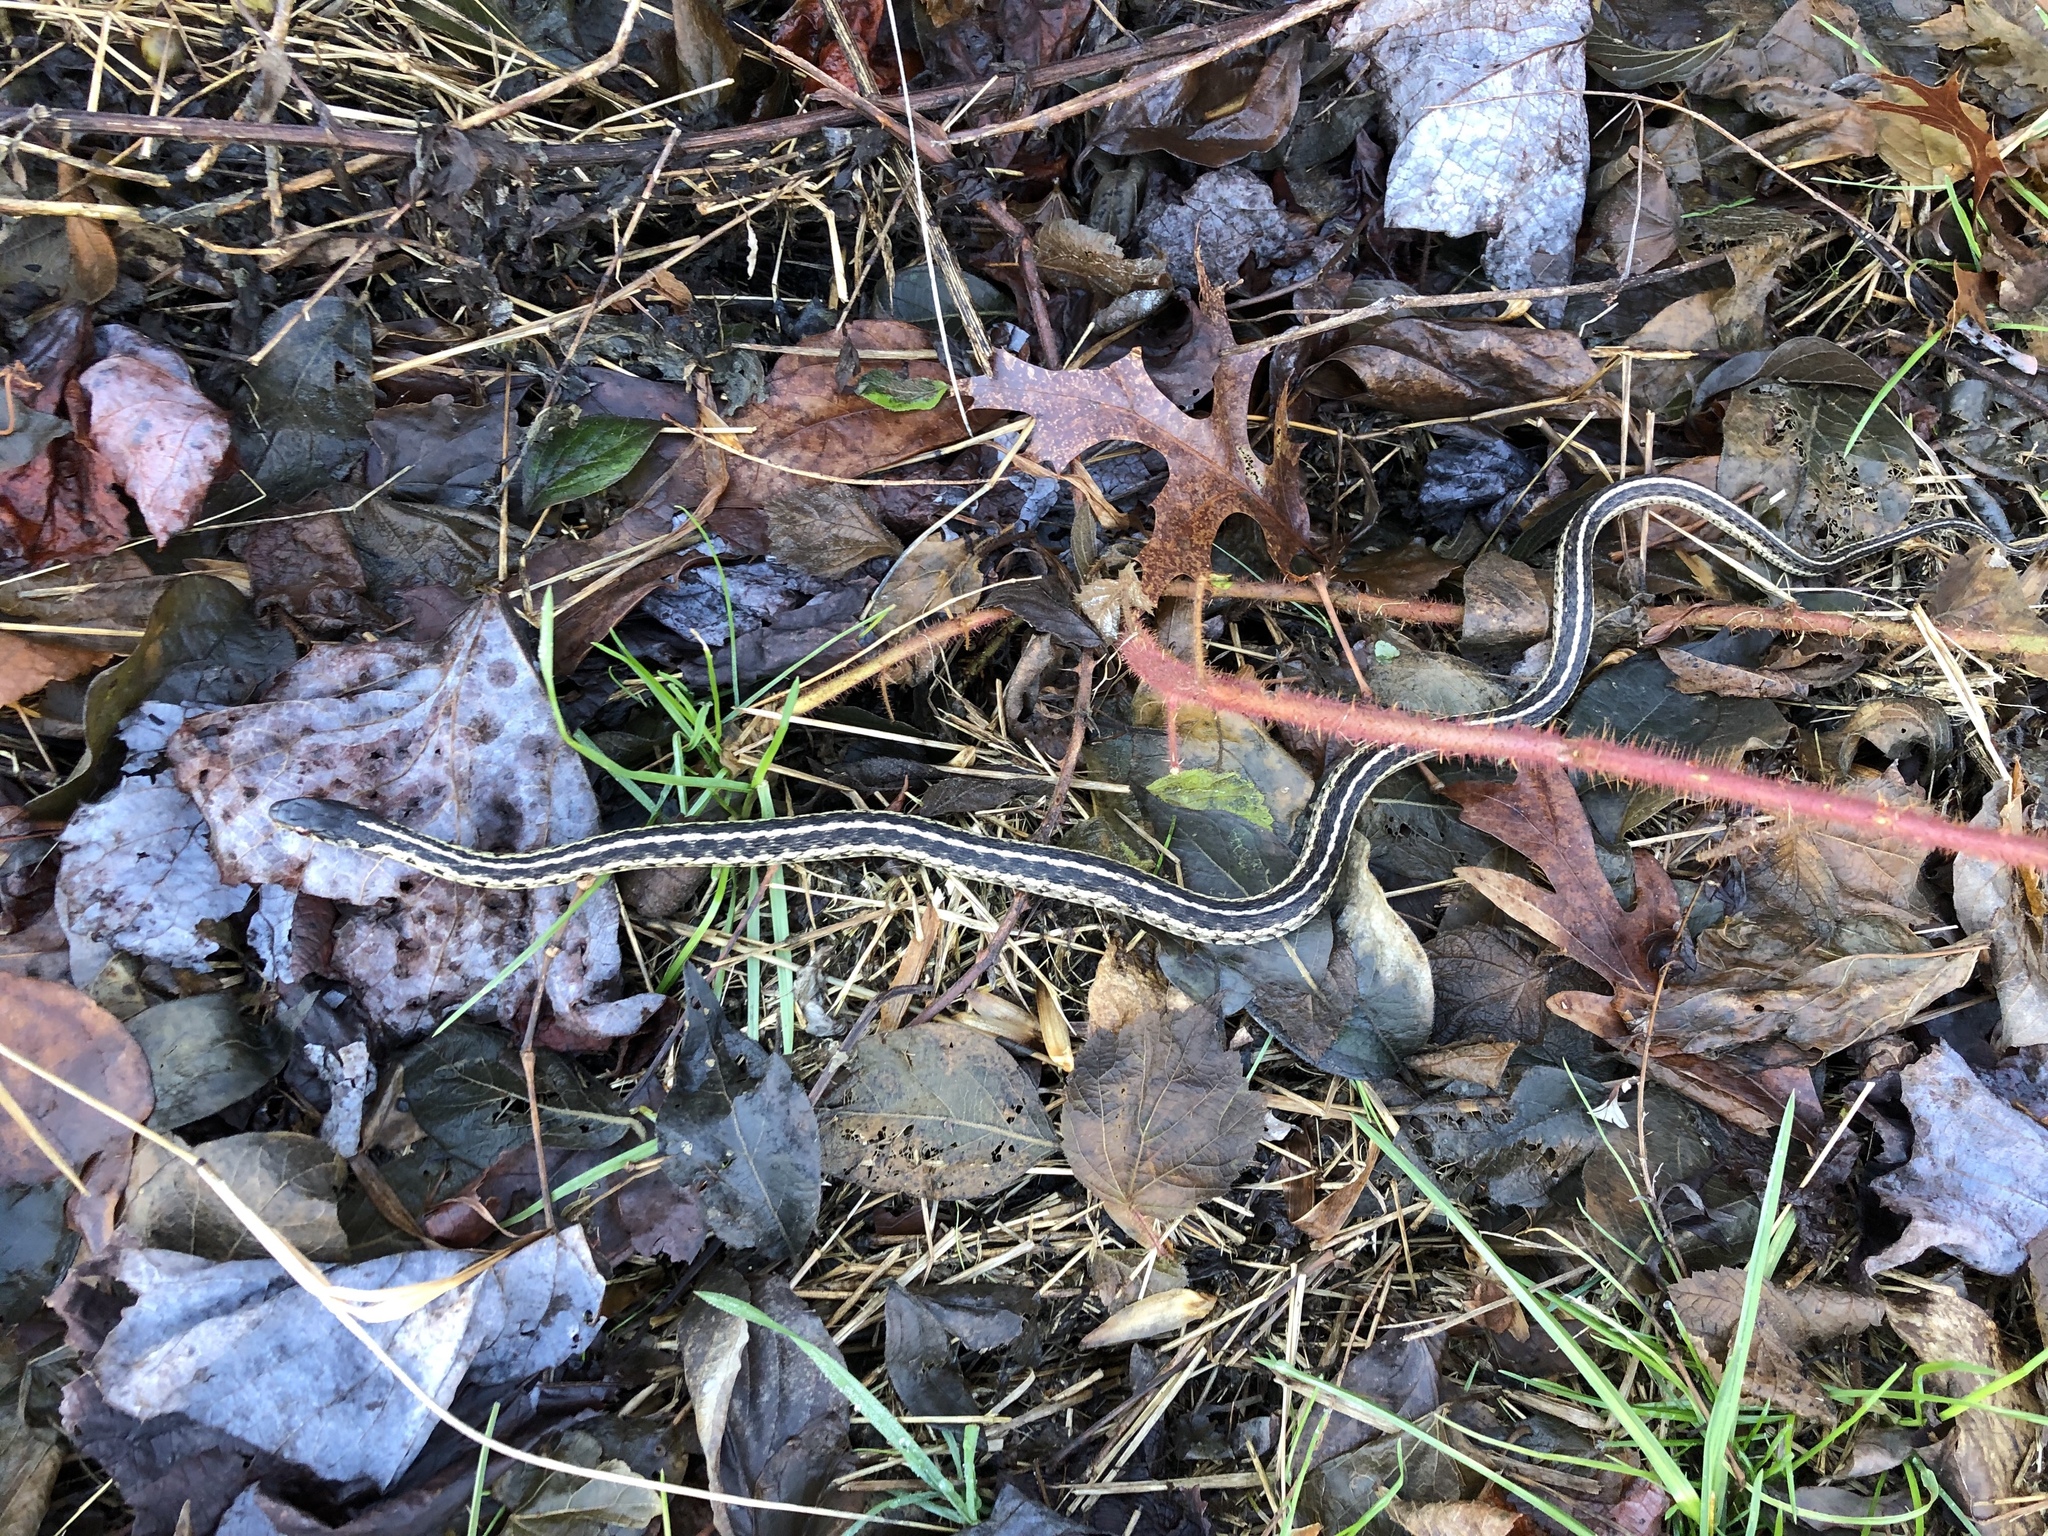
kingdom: Animalia
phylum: Chordata
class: Squamata
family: Colubridae
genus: Thamnophis
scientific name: Thamnophis sirtalis
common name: Common garter snake
